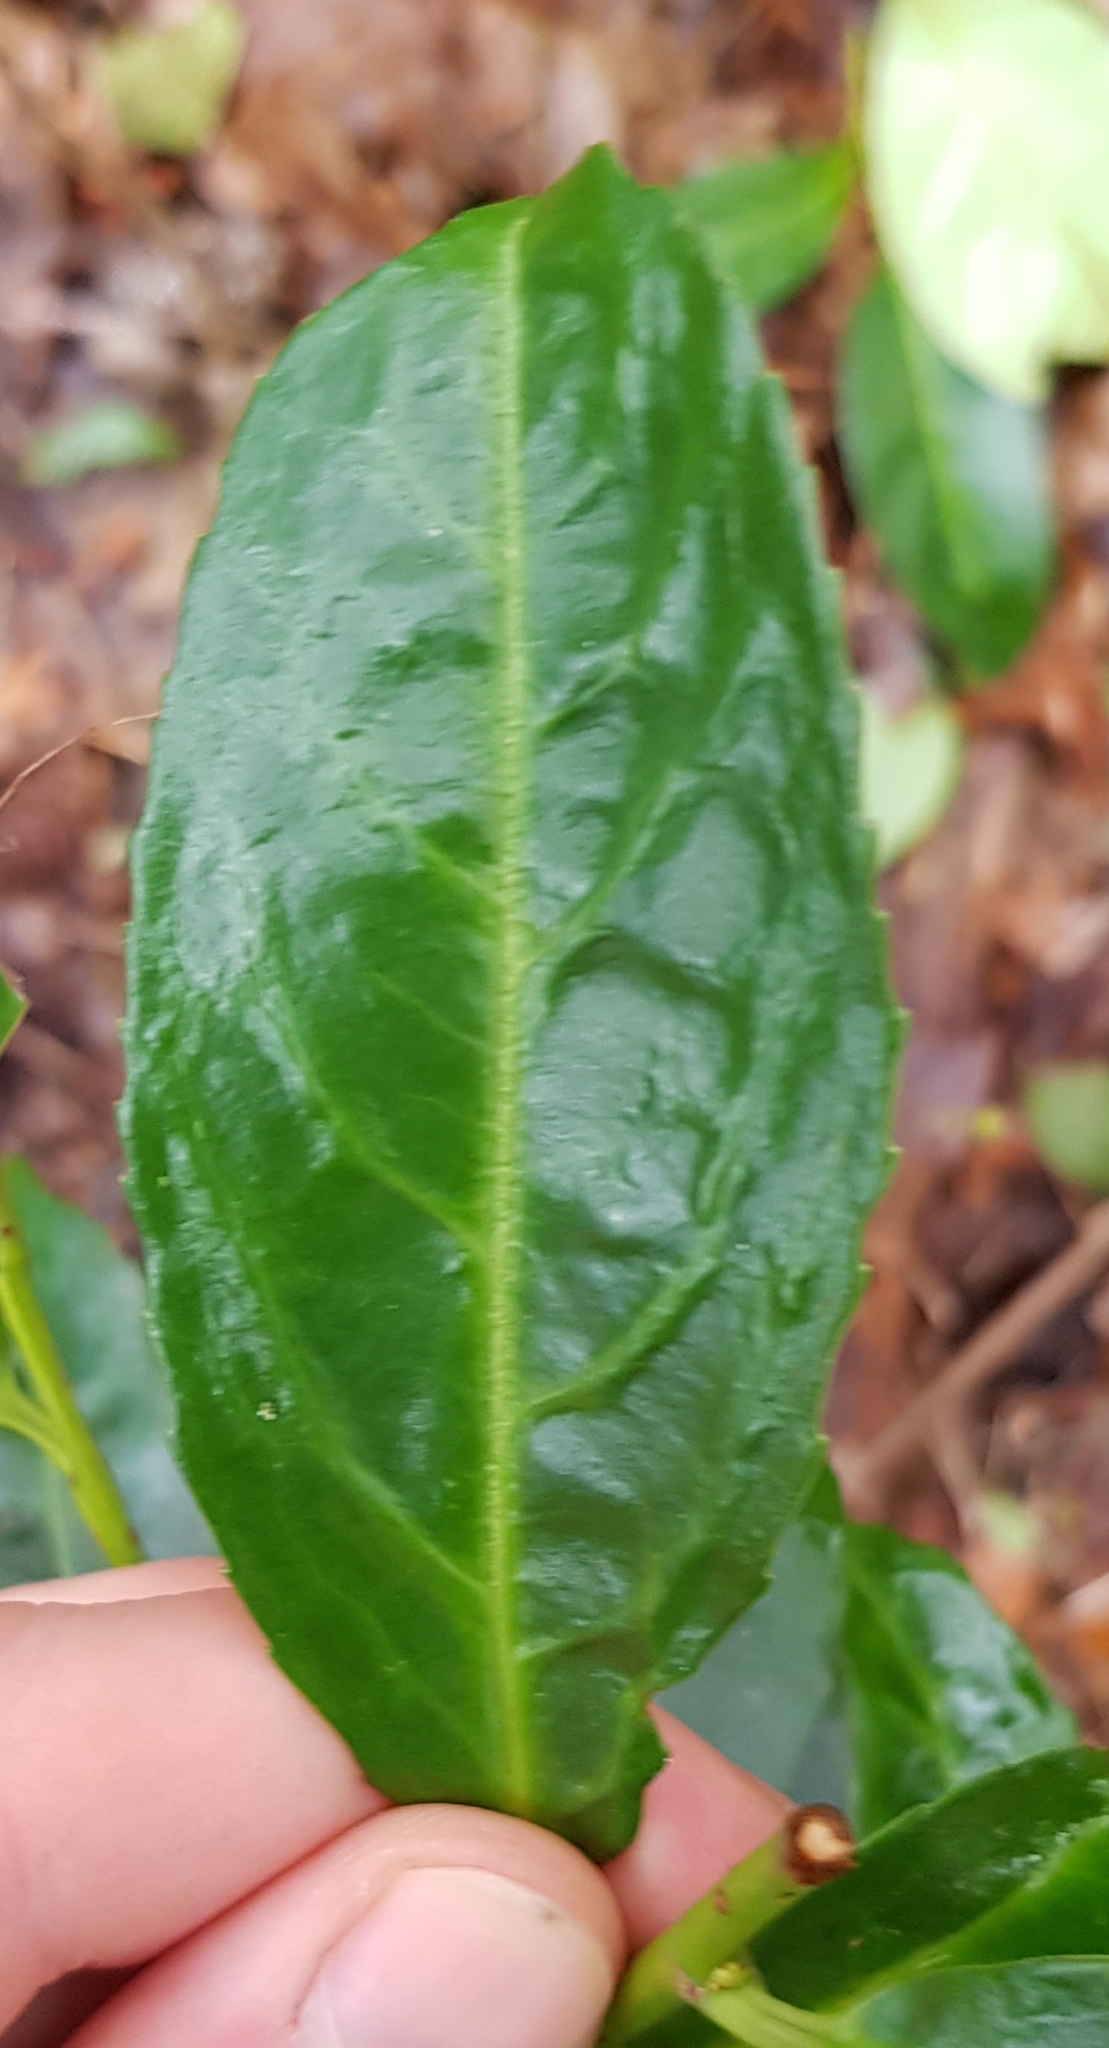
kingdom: Plantae
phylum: Tracheophyta
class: Magnoliopsida
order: Rosales
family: Rosaceae
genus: Prunus
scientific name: Prunus laurocerasus
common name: Cherry laurel
